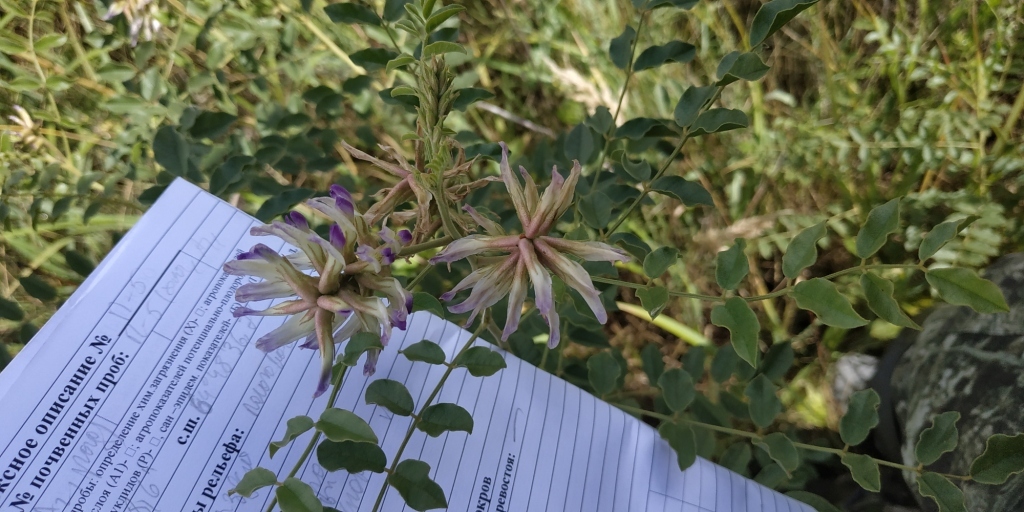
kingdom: Plantae
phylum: Tracheophyta
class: Magnoliopsida
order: Fabales
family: Fabaceae
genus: Glycyrrhiza
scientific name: Glycyrrhiza uralensis
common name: Chinese licorice
